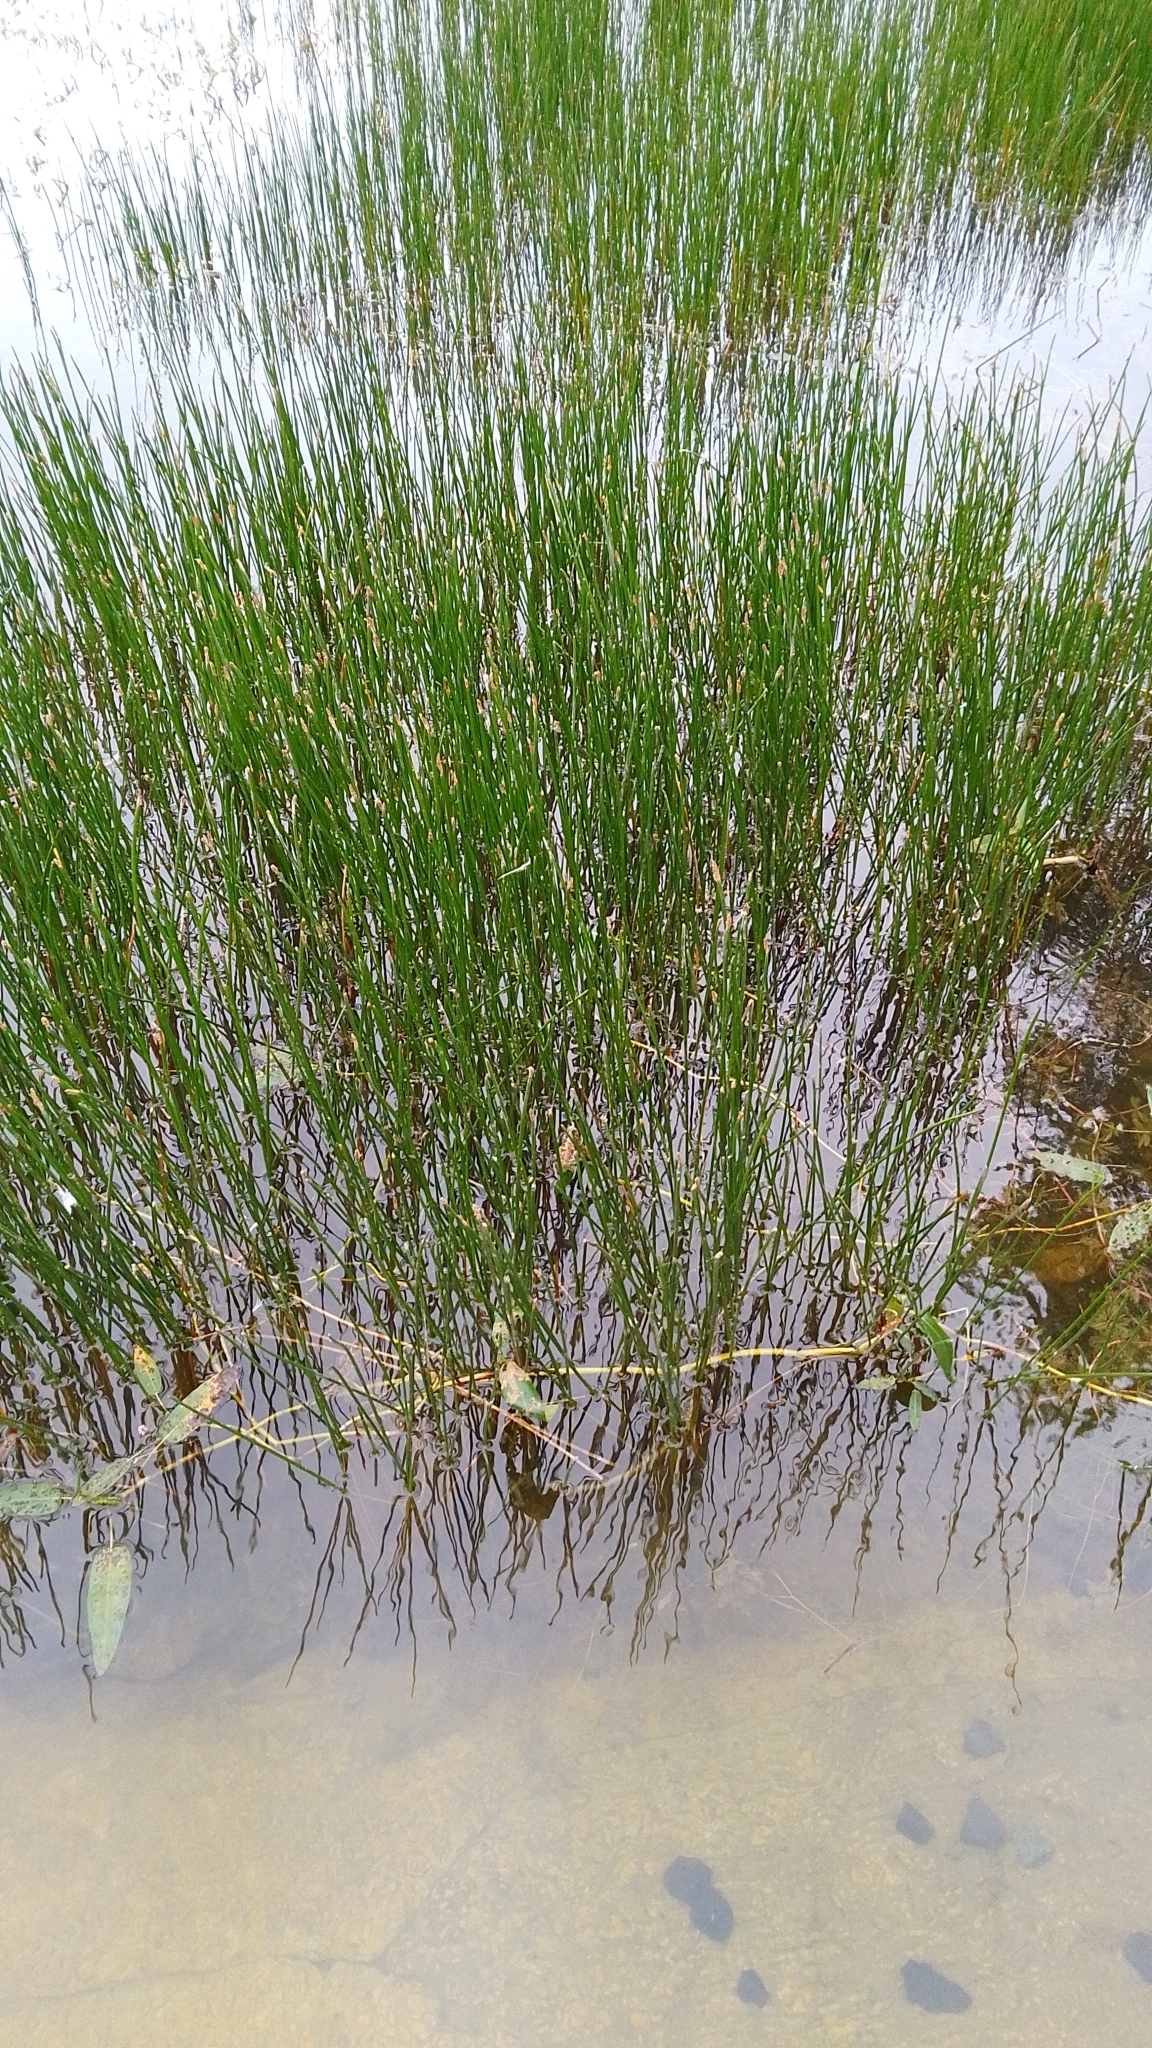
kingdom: Plantae
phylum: Tracheophyta
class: Liliopsida
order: Poales
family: Cyperaceae
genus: Eleocharis
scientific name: Eleocharis palustris
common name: Common spike-rush
